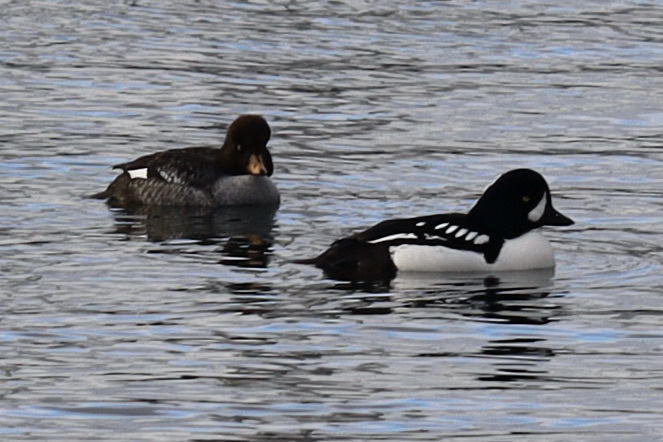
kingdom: Animalia
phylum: Chordata
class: Aves
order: Anseriformes
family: Anatidae
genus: Bucephala
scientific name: Bucephala islandica
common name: Barrow's goldeneye
